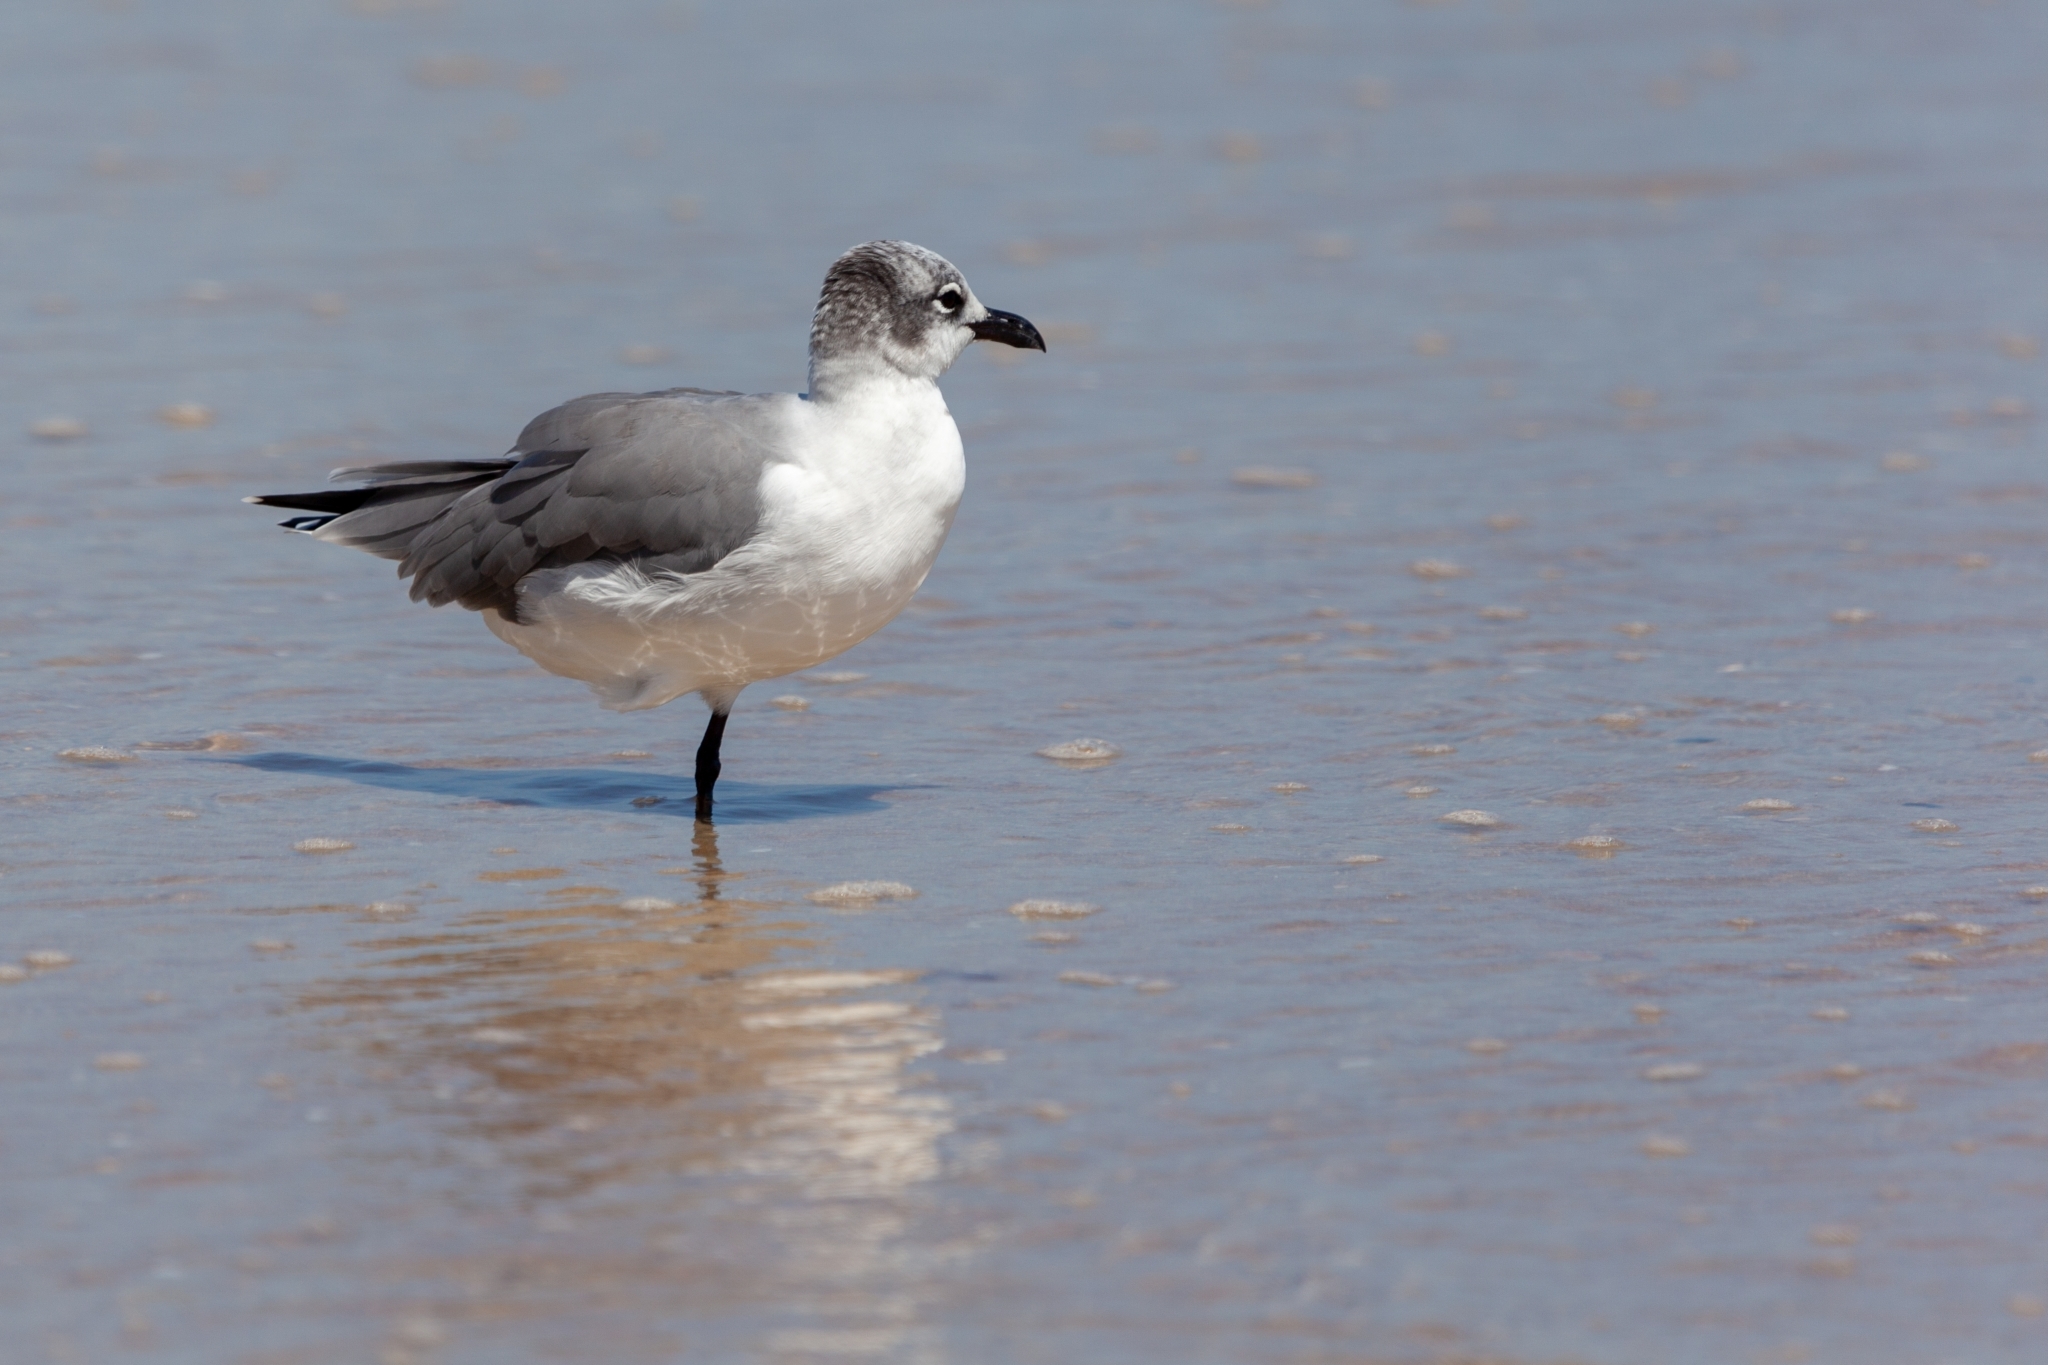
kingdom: Animalia
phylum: Chordata
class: Aves
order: Charadriiformes
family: Laridae
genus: Leucophaeus
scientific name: Leucophaeus atricilla
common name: Laughing gull
